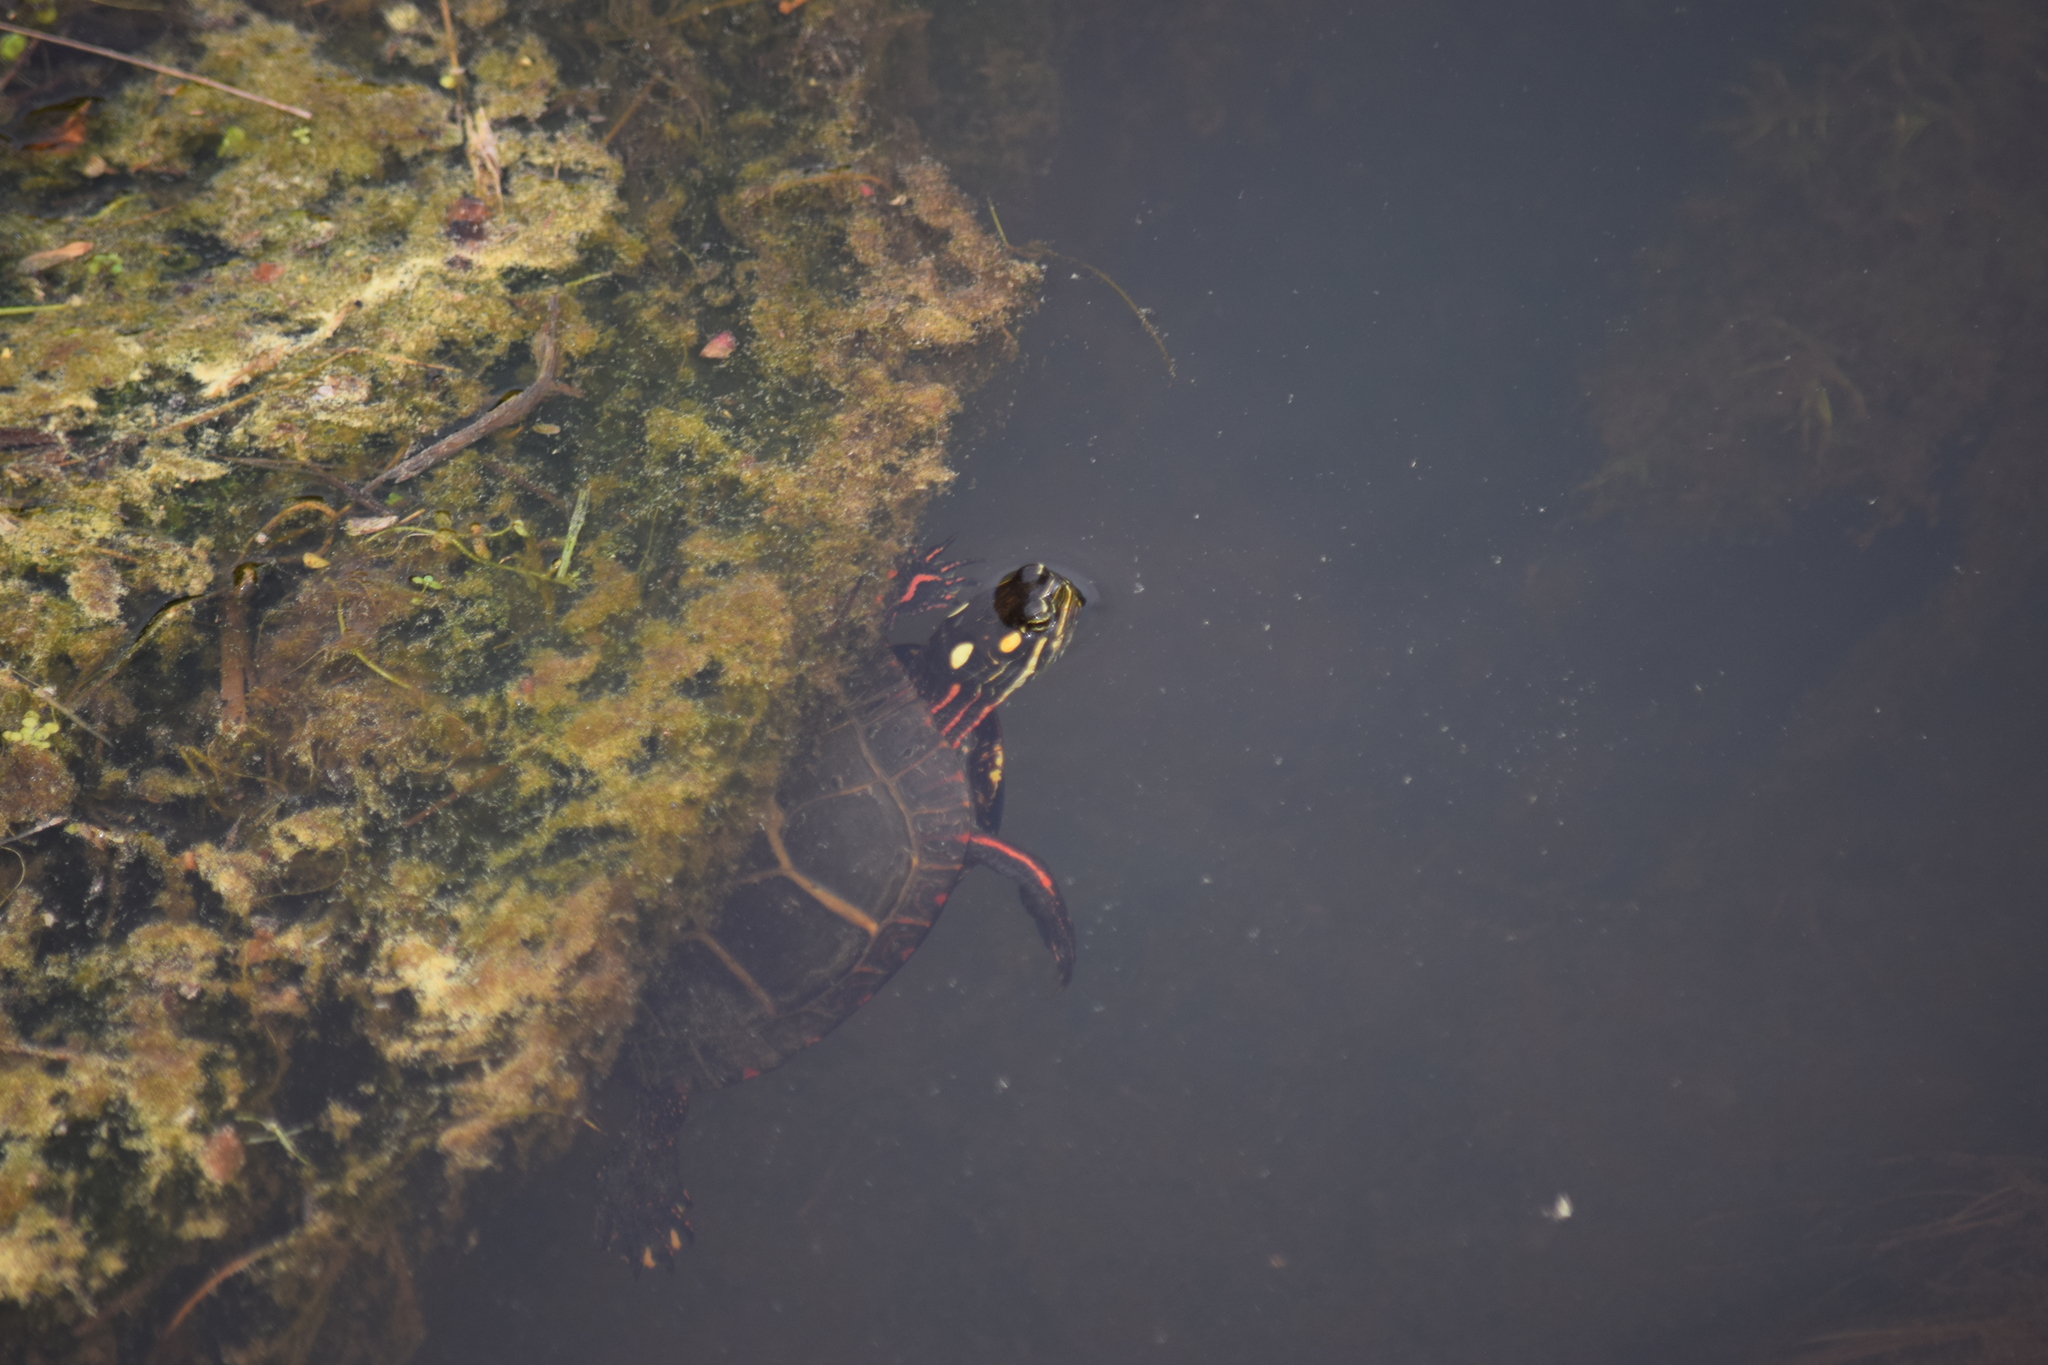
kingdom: Animalia
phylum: Chordata
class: Testudines
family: Emydidae
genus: Chrysemys
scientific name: Chrysemys picta
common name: Painted turtle
